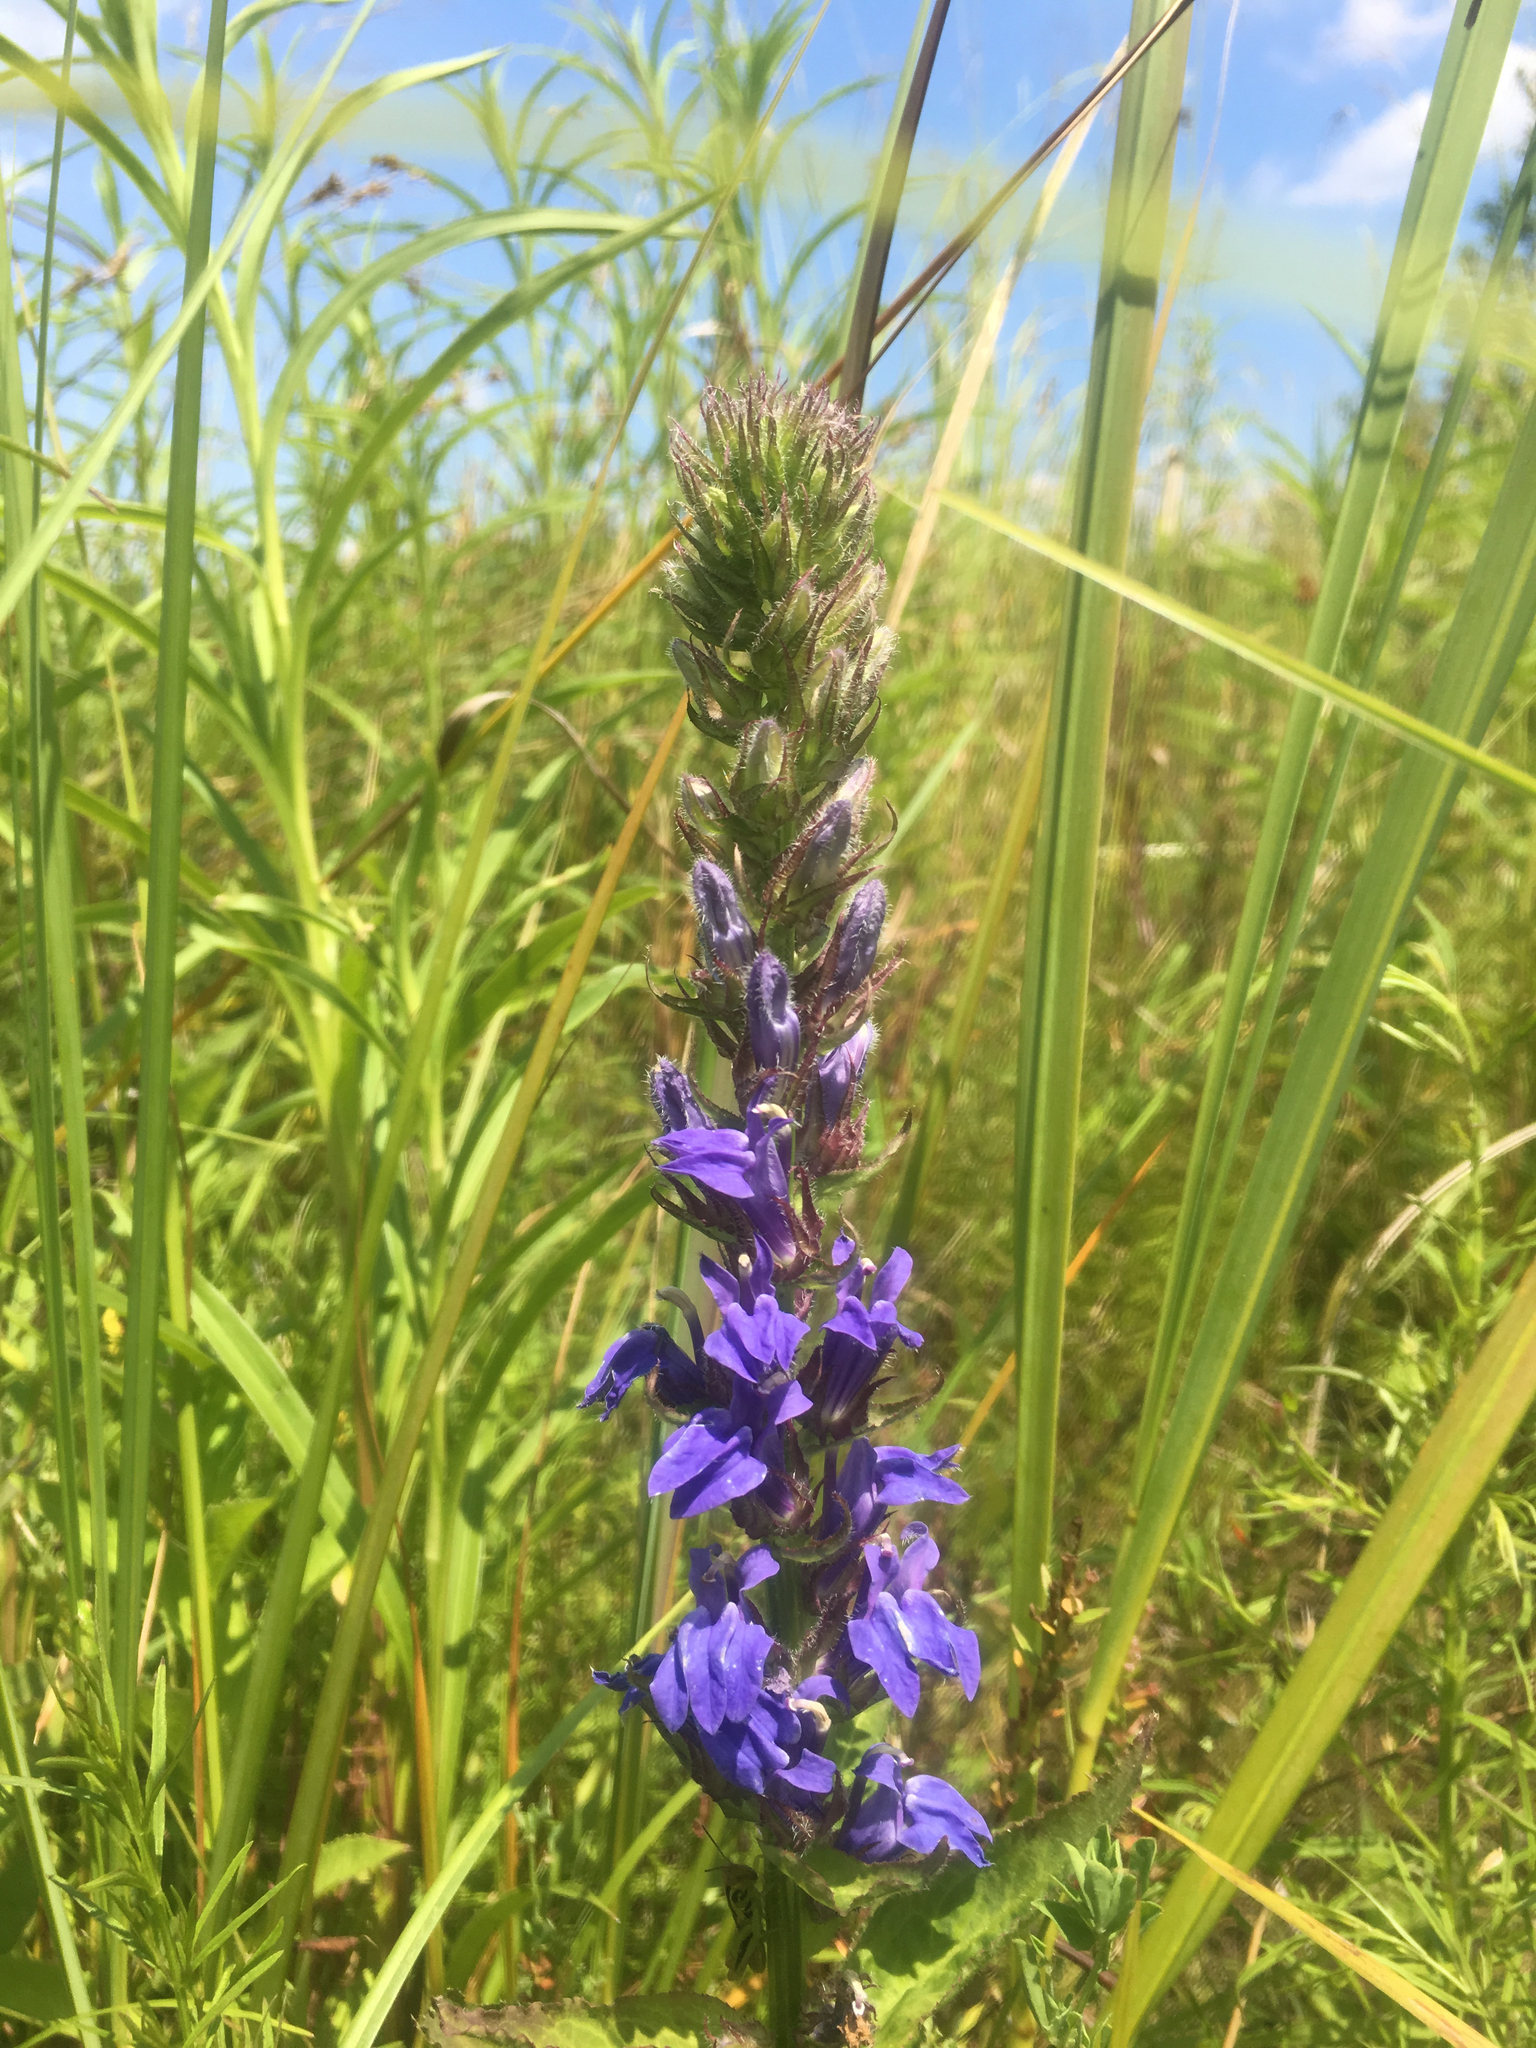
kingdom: Plantae
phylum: Tracheophyta
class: Magnoliopsida
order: Asterales
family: Campanulaceae
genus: Lobelia
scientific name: Lobelia siphilitica
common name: Great lobelia
